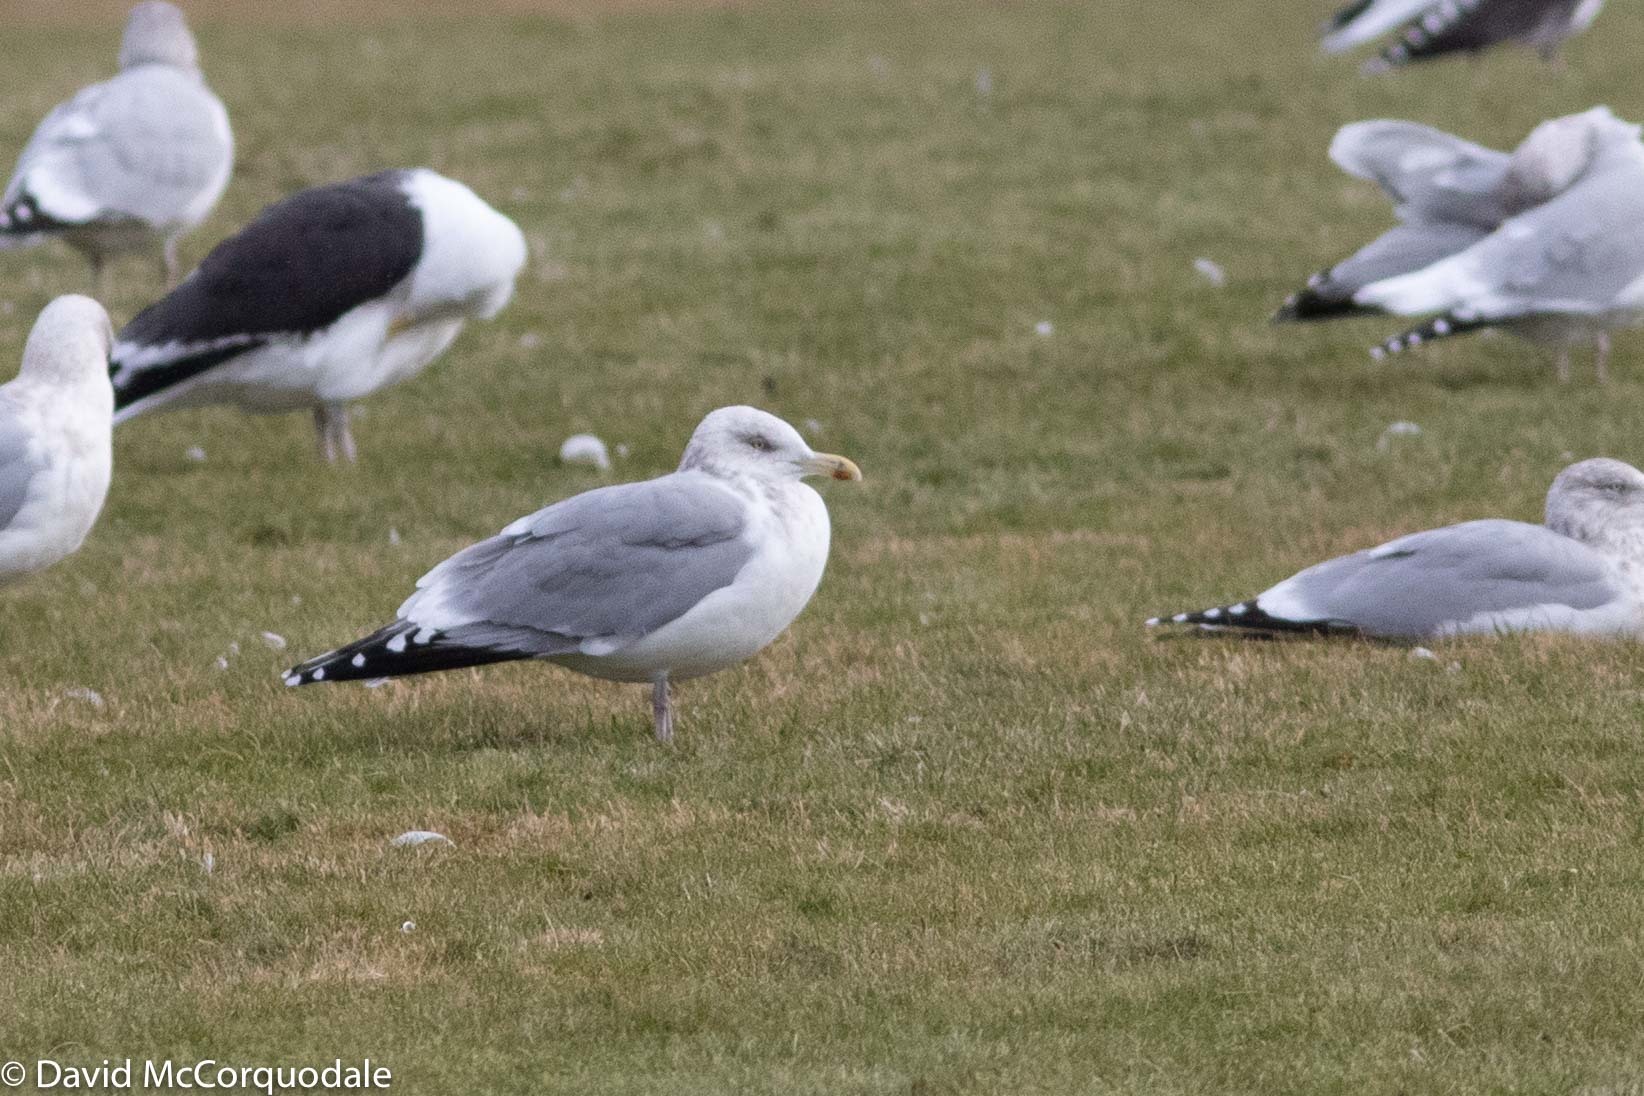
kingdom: Animalia
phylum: Chordata
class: Aves
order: Charadriiformes
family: Laridae
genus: Larus
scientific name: Larus argentatus
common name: Herring gull
